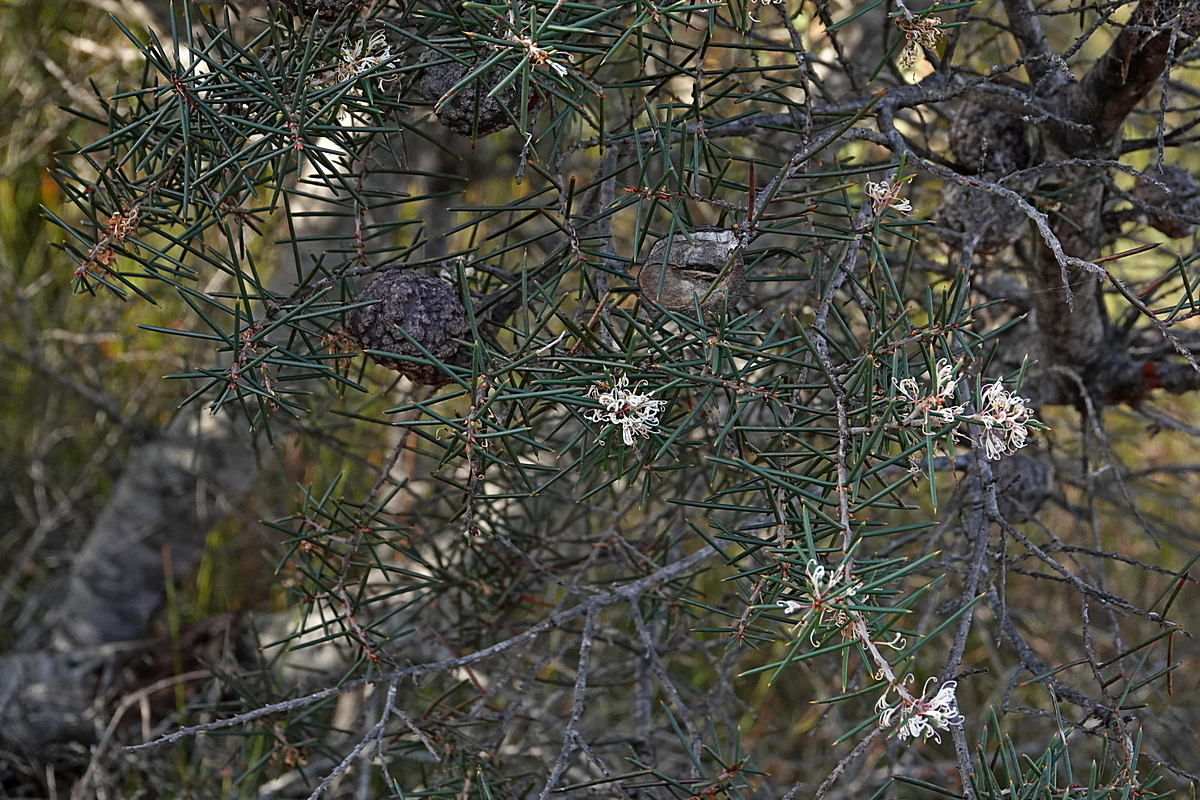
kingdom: Plantae
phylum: Tracheophyta
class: Magnoliopsida
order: Proteales
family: Proteaceae
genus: Hakea
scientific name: Hakea decurrens
